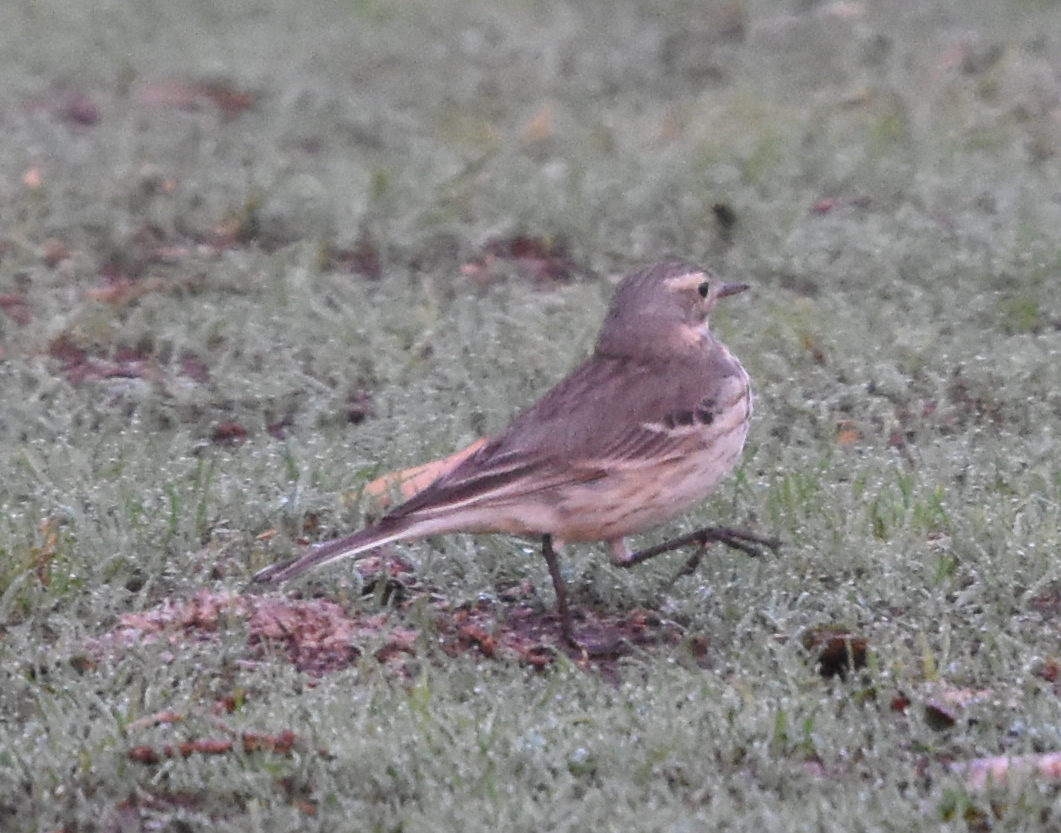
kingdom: Animalia
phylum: Chordata
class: Aves
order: Passeriformes
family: Motacillidae
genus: Anthus
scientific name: Anthus rubescens
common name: Buff-bellied pipit
